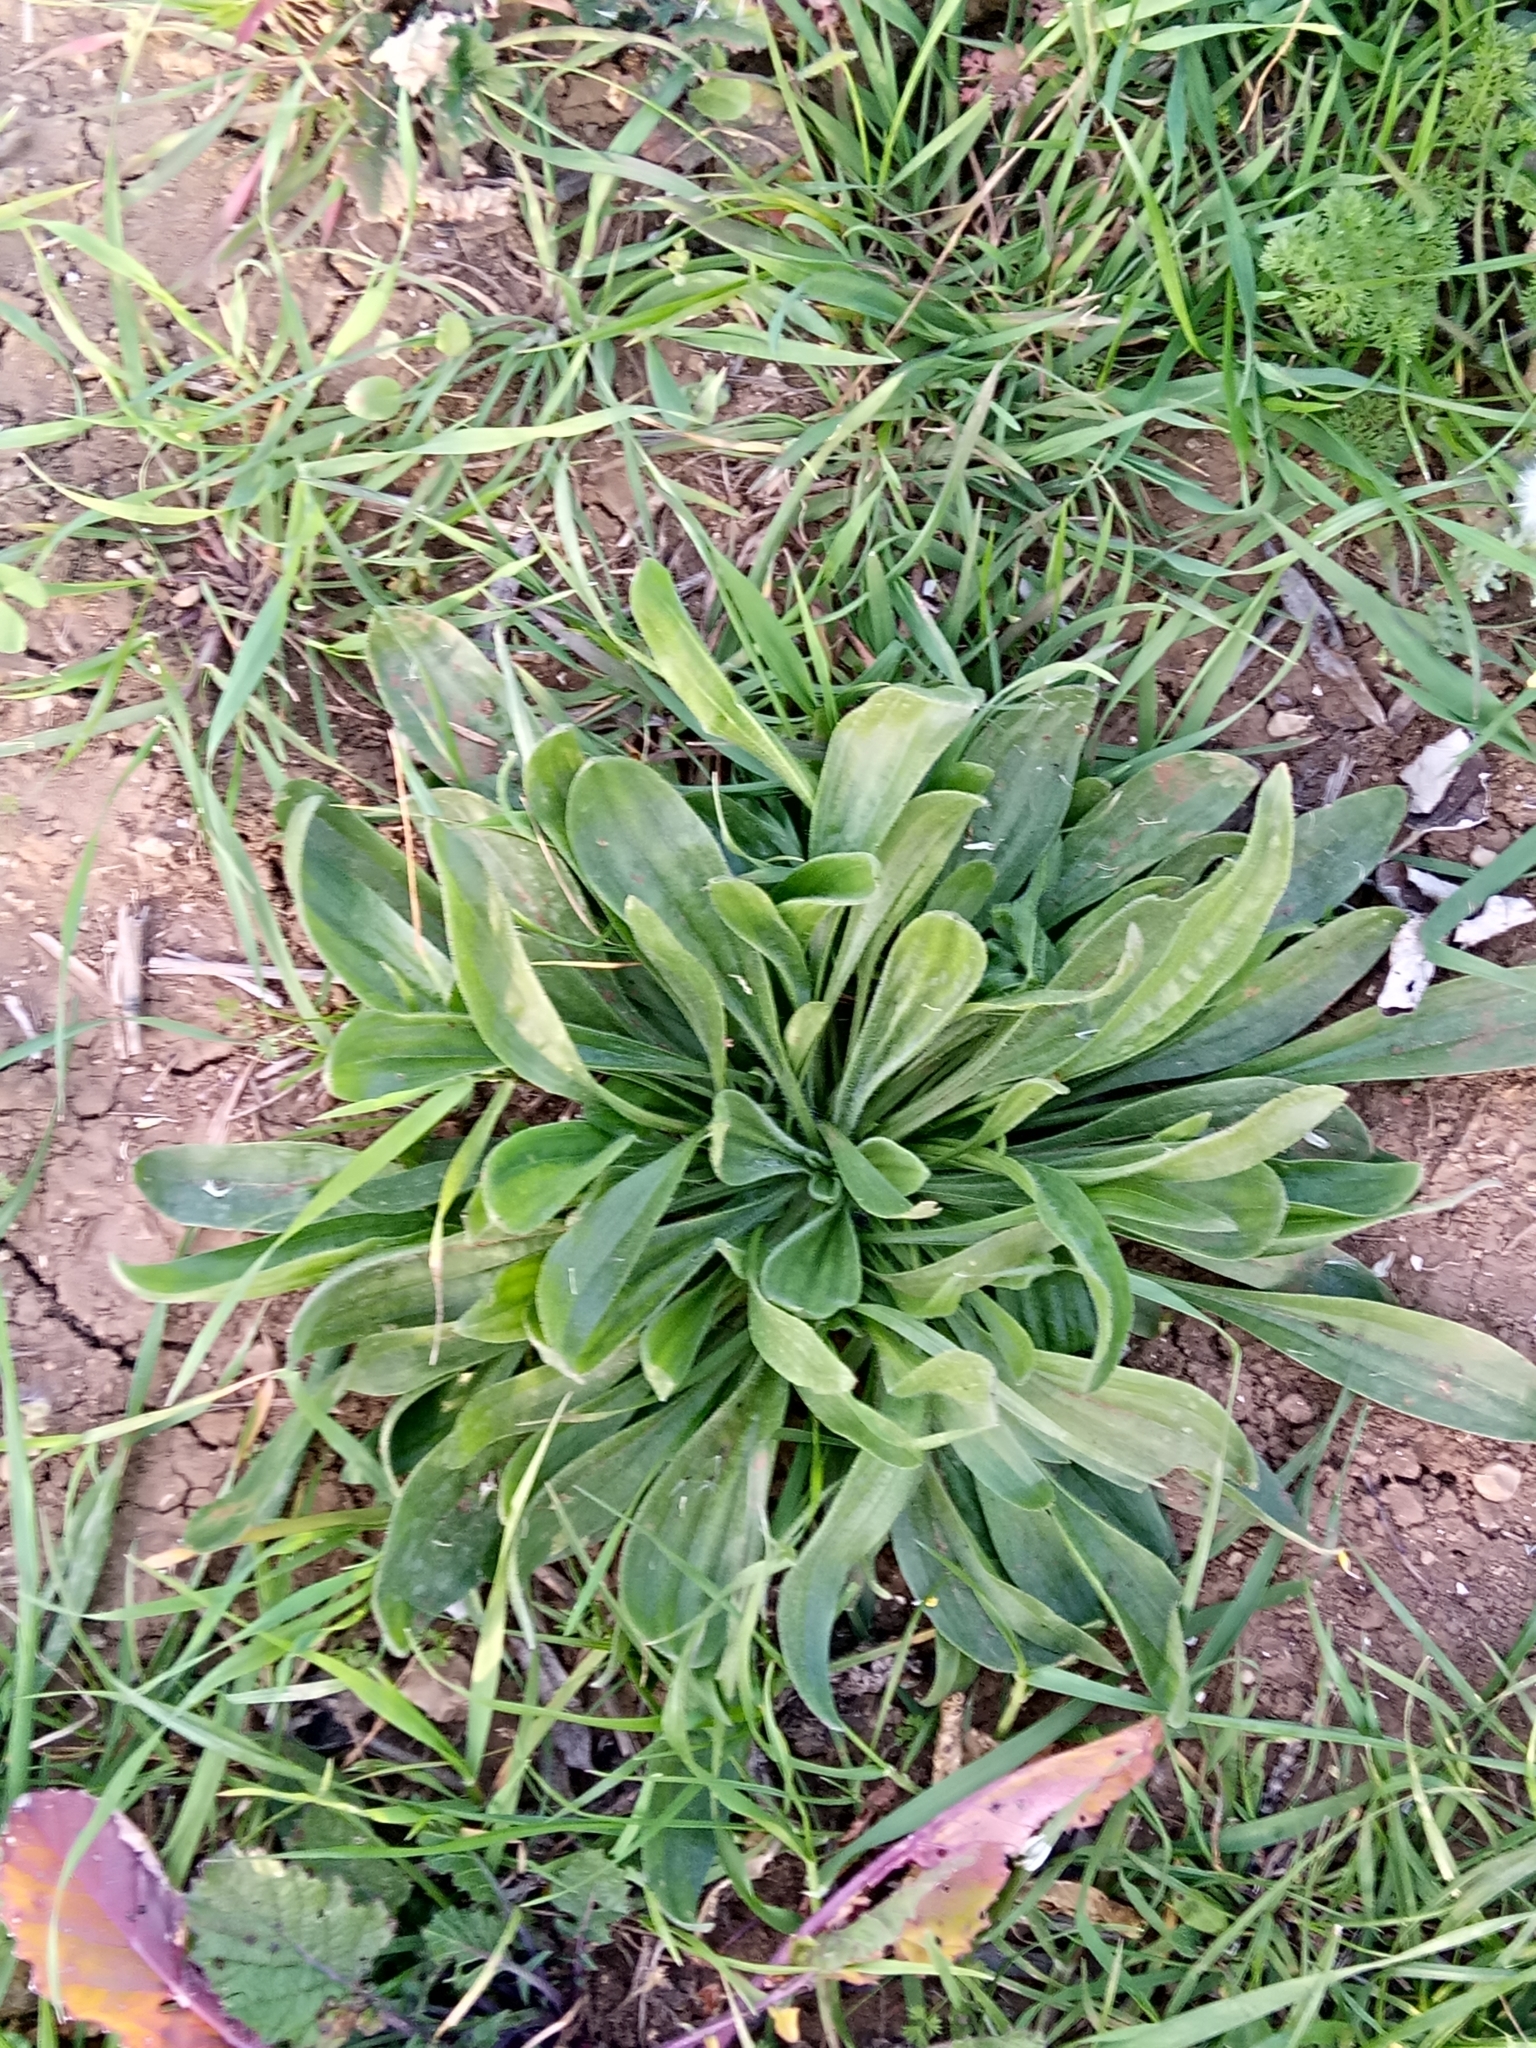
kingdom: Plantae
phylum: Tracheophyta
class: Magnoliopsida
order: Lamiales
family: Plantaginaceae
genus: Plantago
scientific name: Plantago lanceolata
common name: Ribwort plantain
